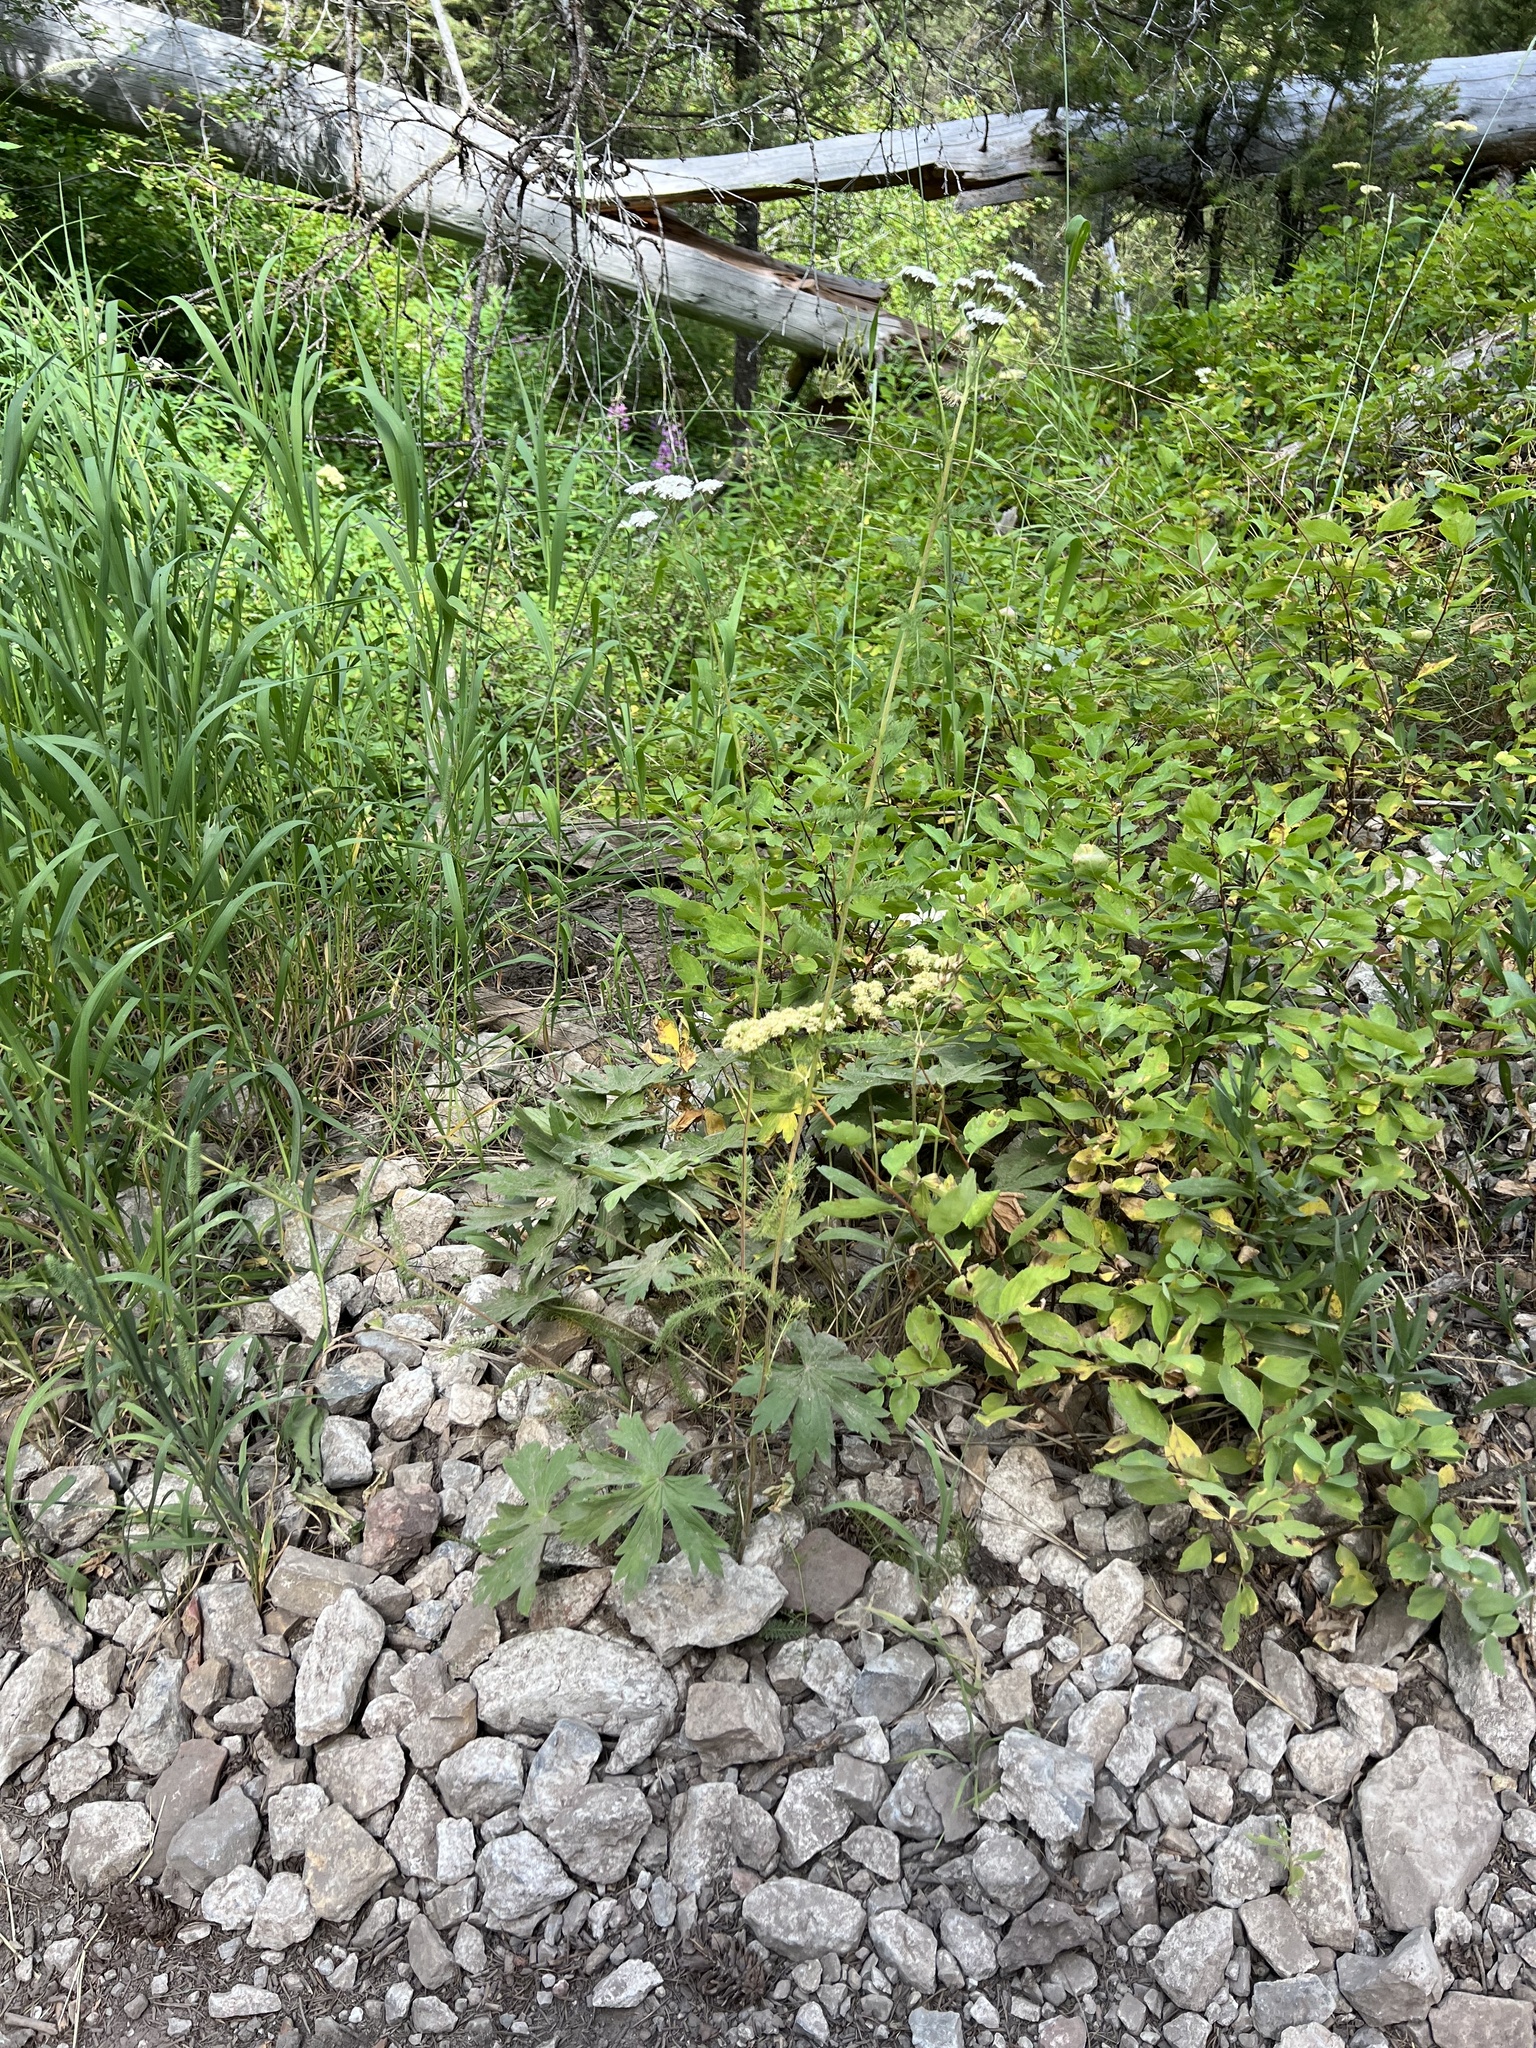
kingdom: Plantae
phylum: Tracheophyta
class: Magnoliopsida
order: Asterales
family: Asteraceae
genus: Achillea
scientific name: Achillea millefolium
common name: Yarrow
